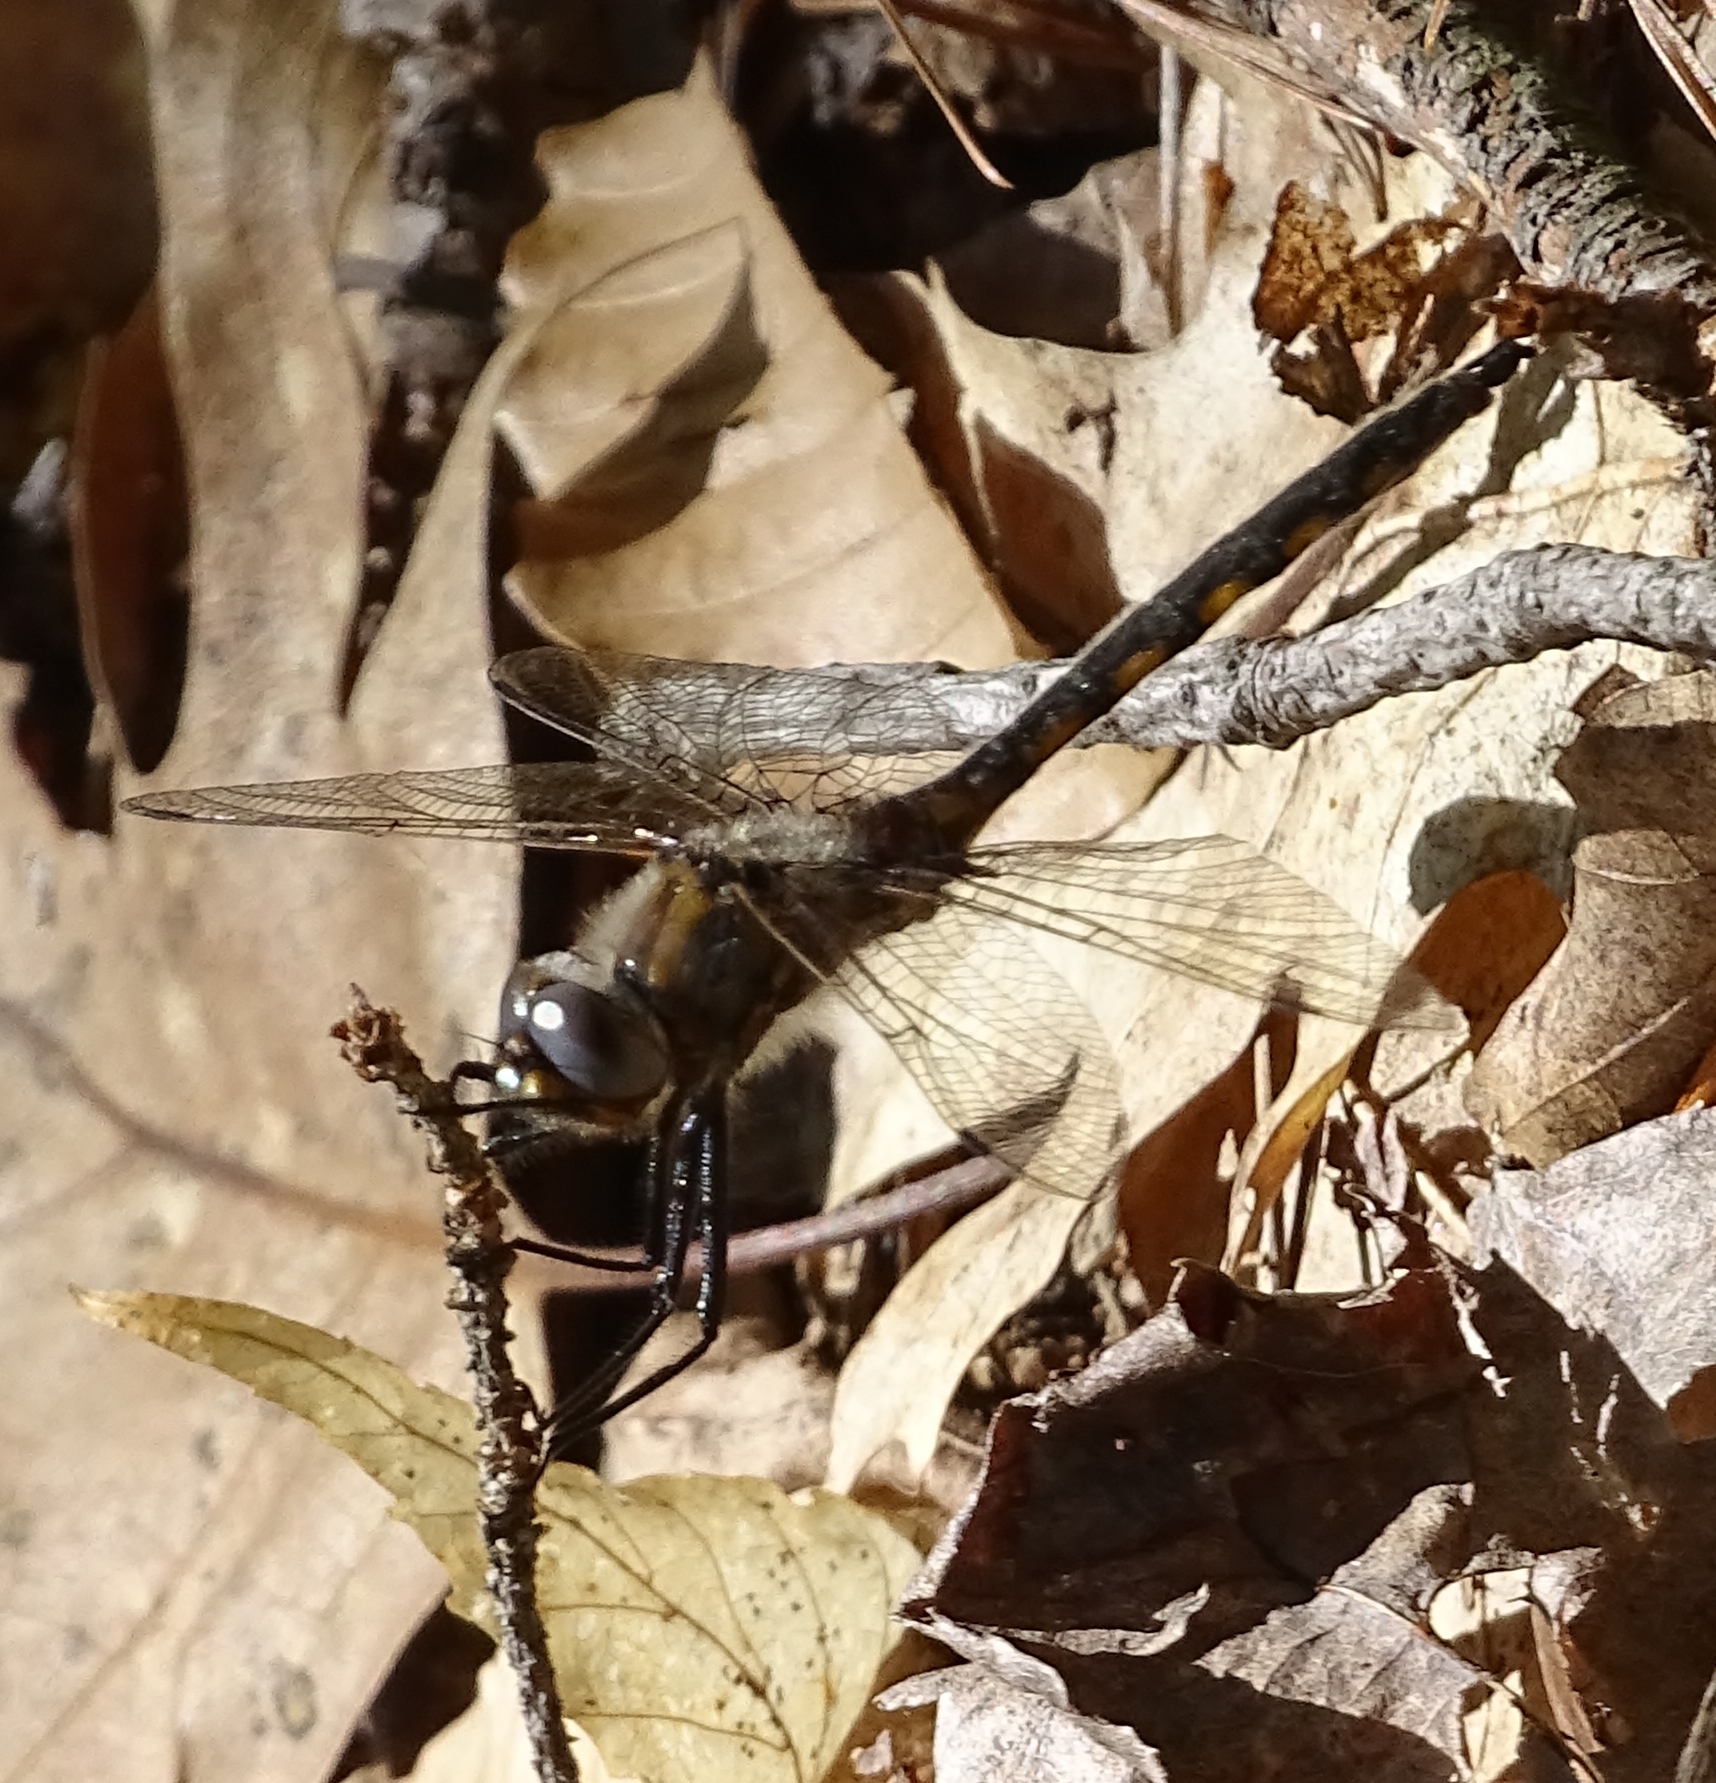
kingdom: Animalia
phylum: Arthropoda
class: Insecta
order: Odonata
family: Corduliidae
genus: Epitheca
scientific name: Epitheca canis
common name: Beaverpond baskettail
